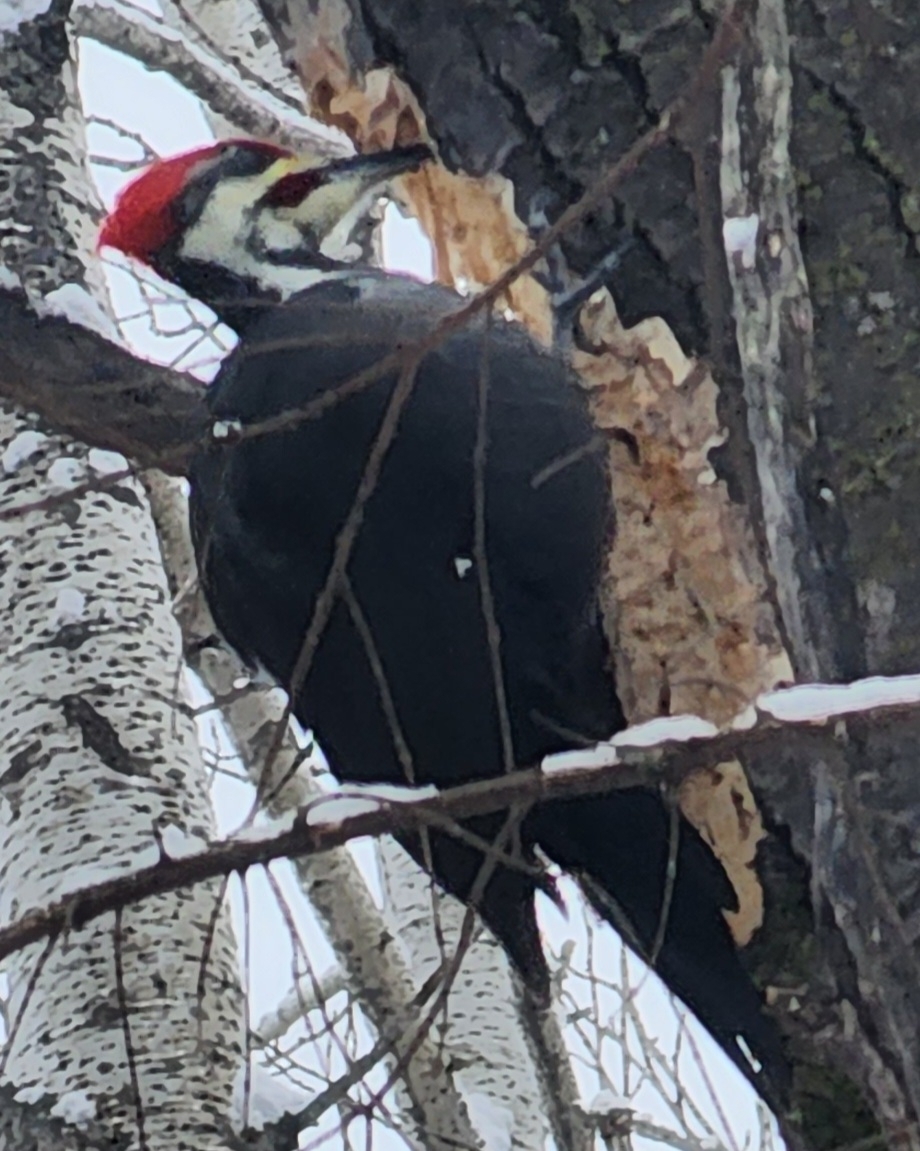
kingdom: Animalia
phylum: Chordata
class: Aves
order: Piciformes
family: Picidae
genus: Dryocopus
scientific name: Dryocopus pileatus
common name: Pileated woodpecker
